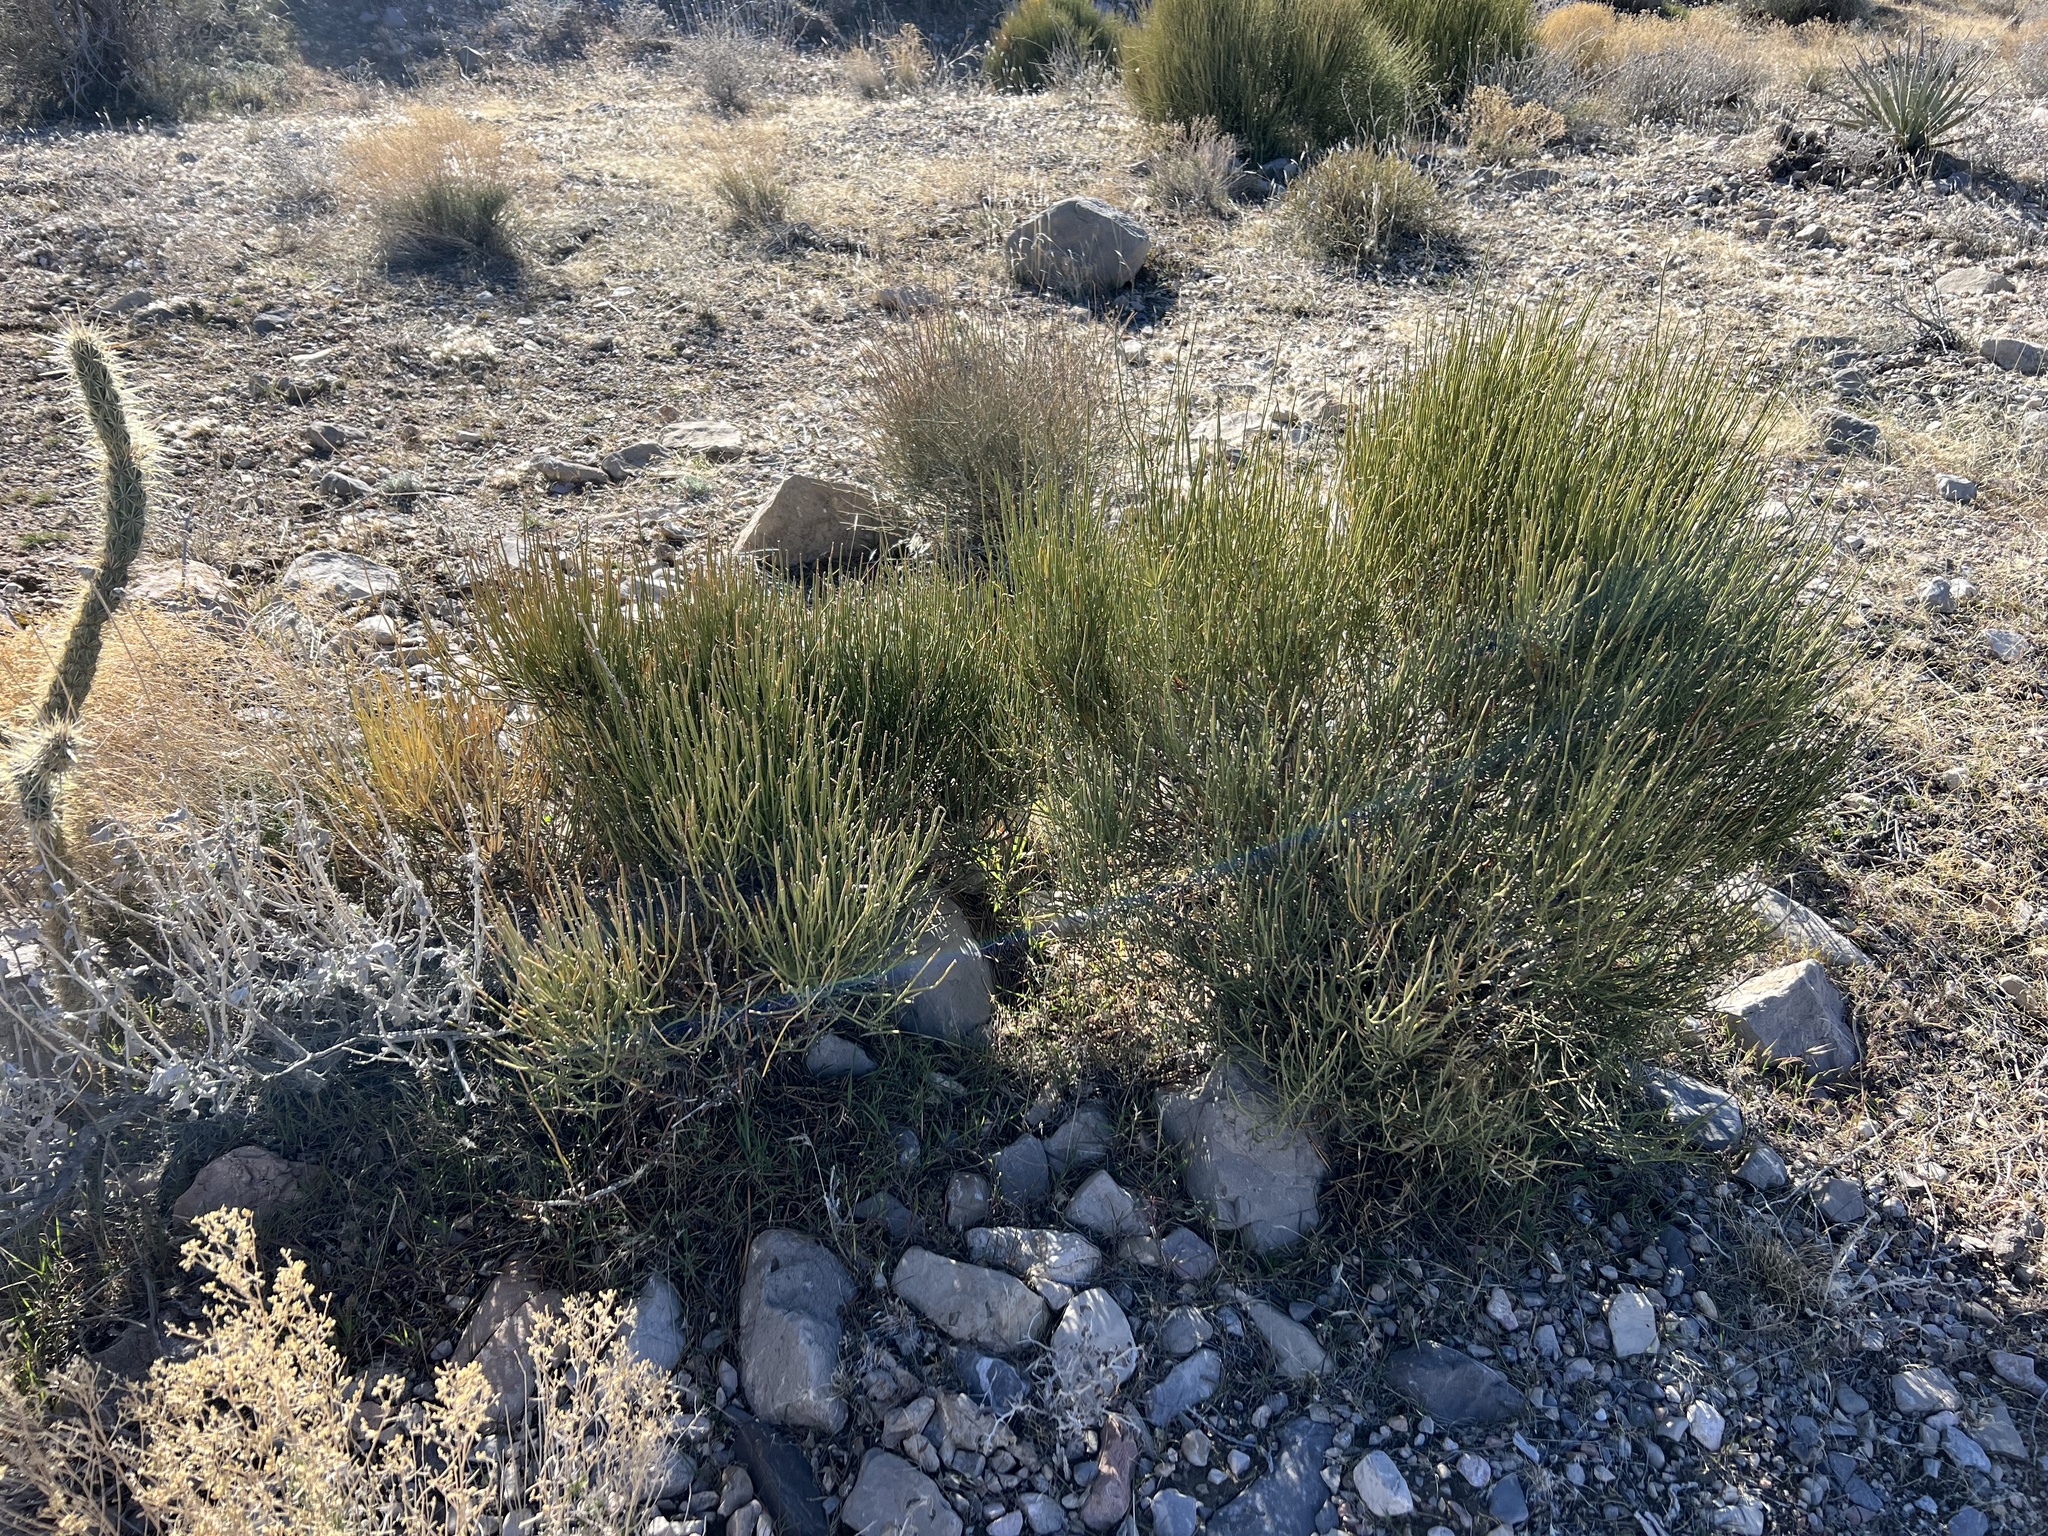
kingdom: Plantae
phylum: Tracheophyta
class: Gnetopsida
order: Ephedrales
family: Ephedraceae
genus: Ephedra
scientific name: Ephedra viridis
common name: Green ephedra
